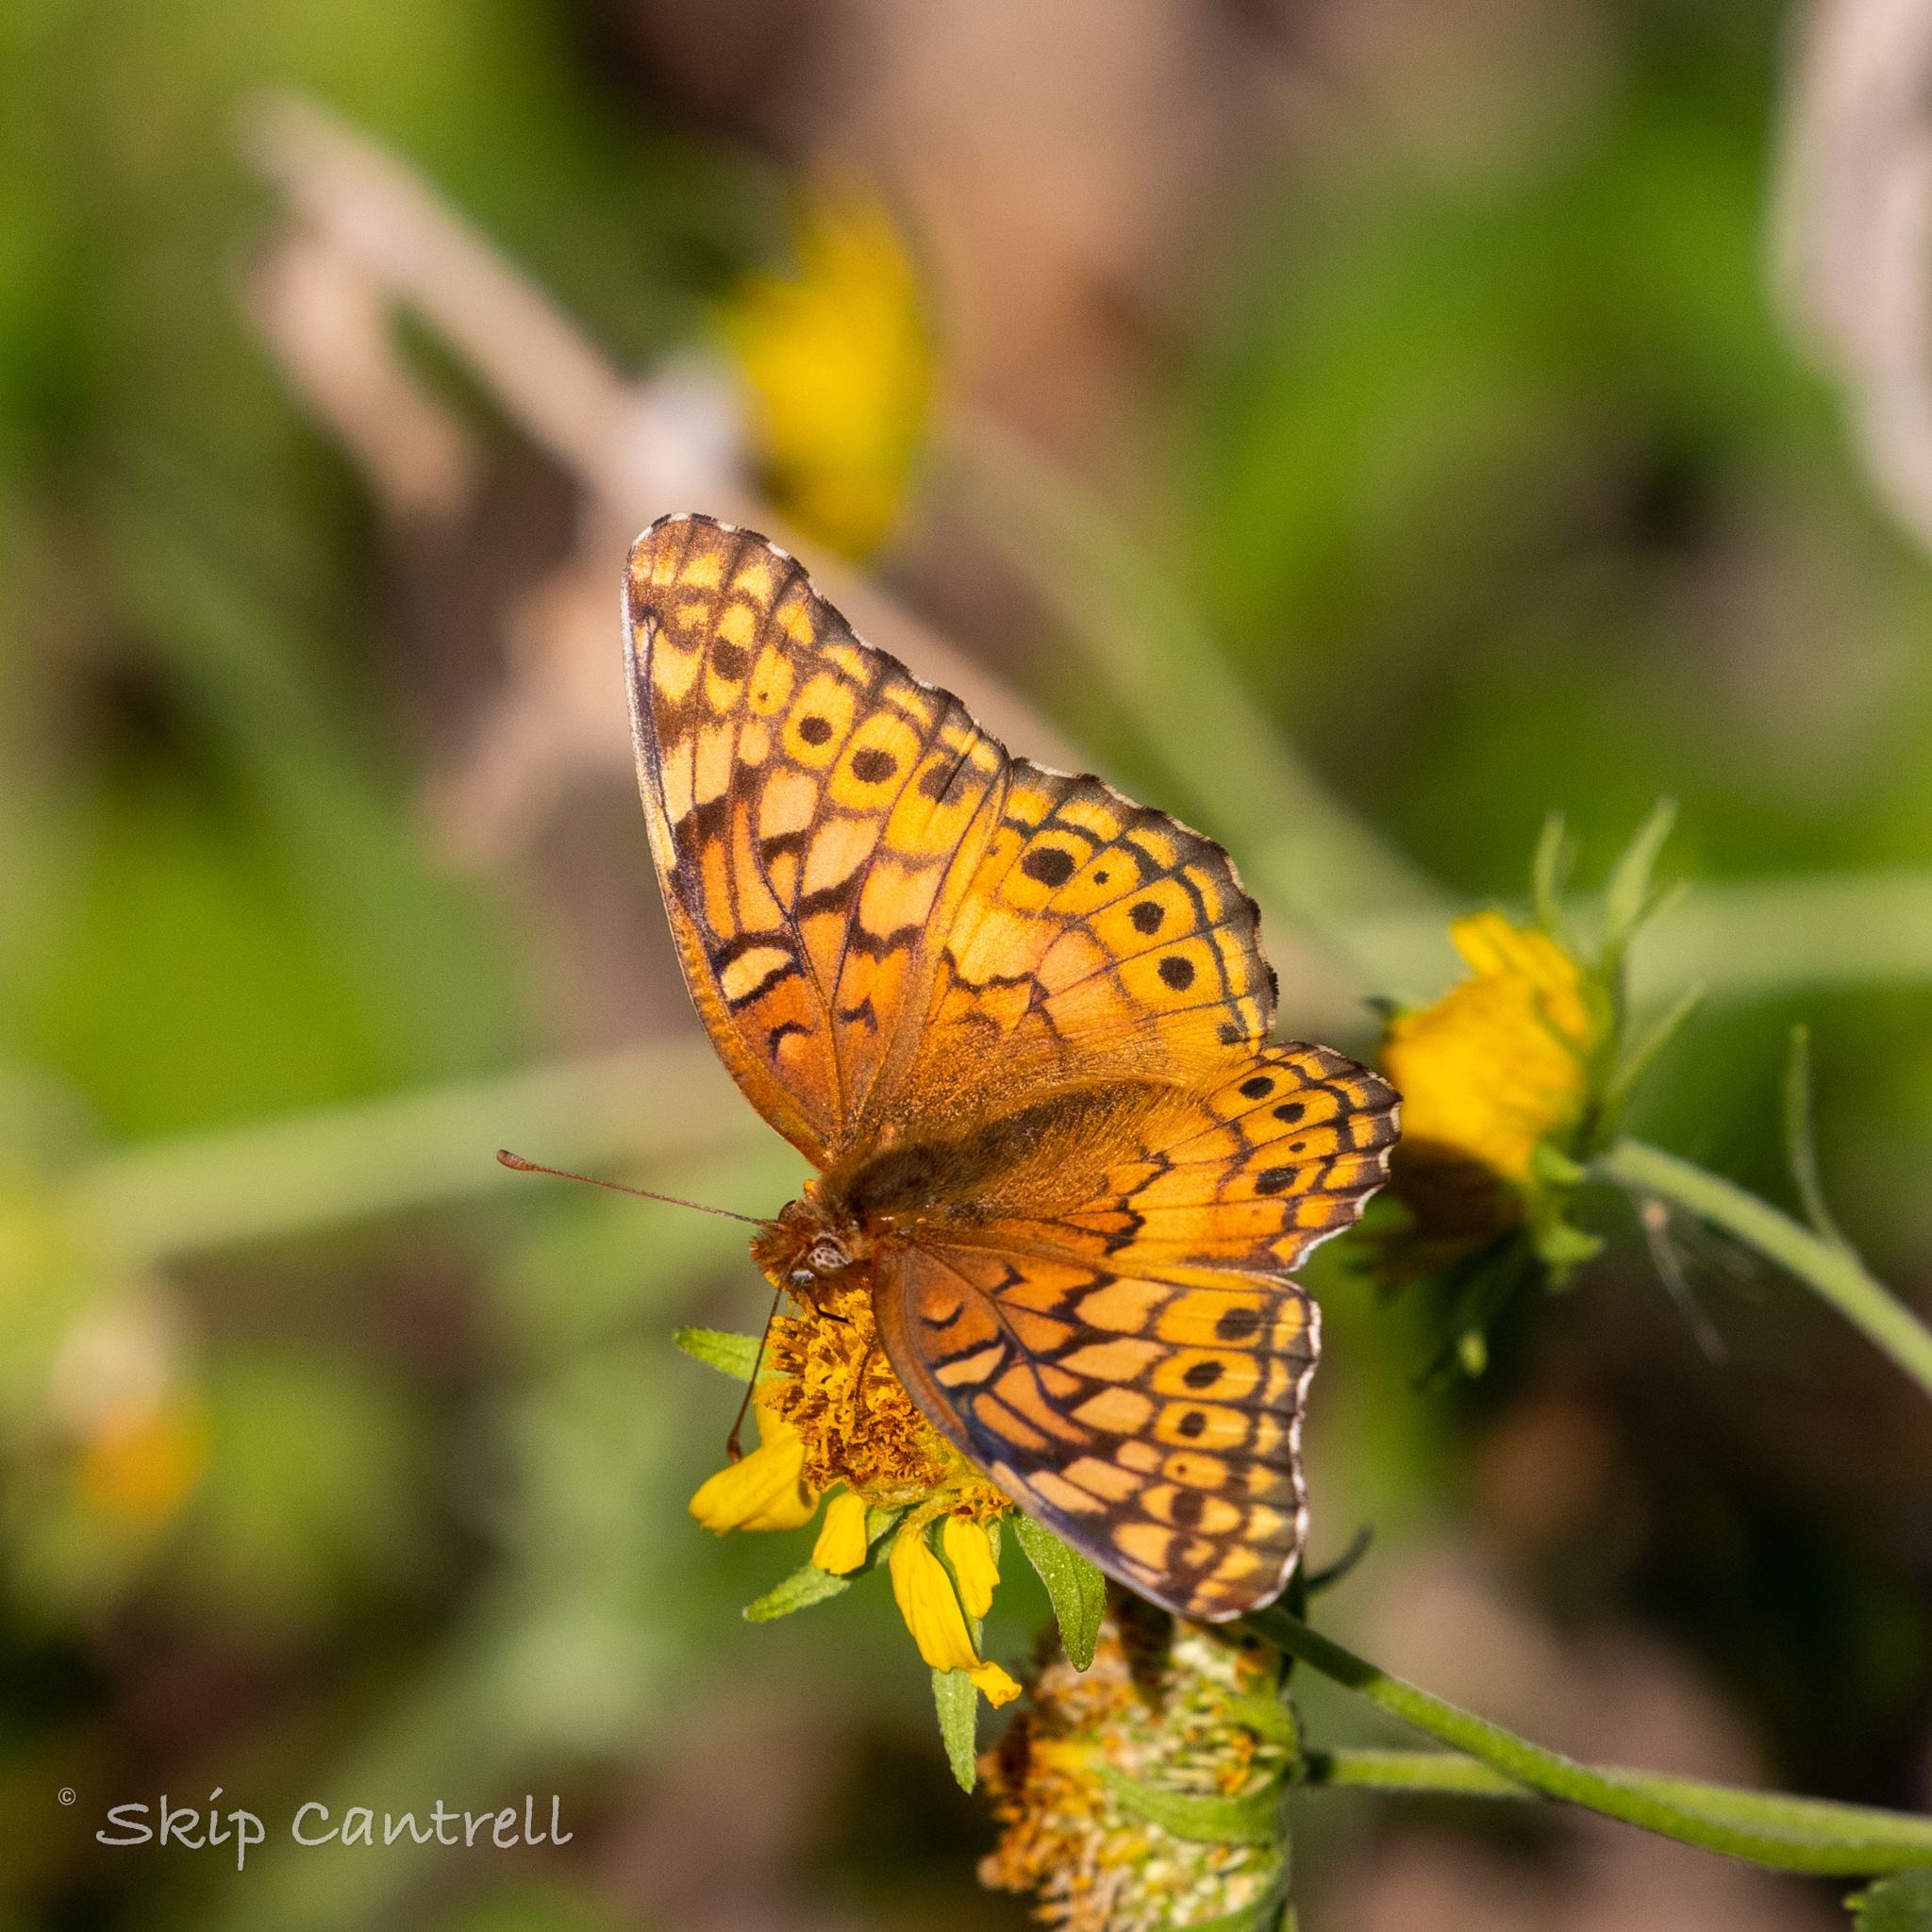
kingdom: Animalia
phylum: Arthropoda
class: Insecta
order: Lepidoptera
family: Nymphalidae
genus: Euptoieta
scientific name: Euptoieta claudia
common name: Variegated fritillary
